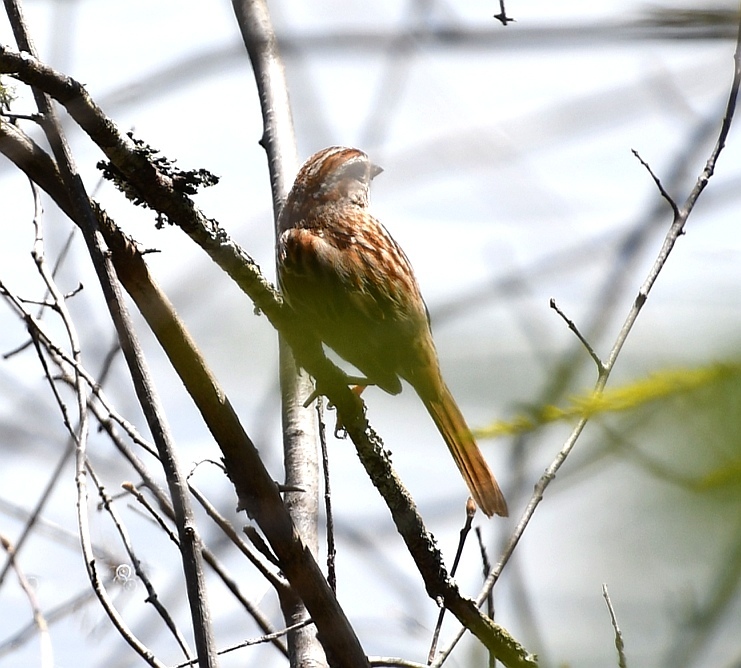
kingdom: Animalia
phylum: Chordata
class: Aves
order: Passeriformes
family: Passerellidae
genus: Melospiza
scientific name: Melospiza melodia
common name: Song sparrow
